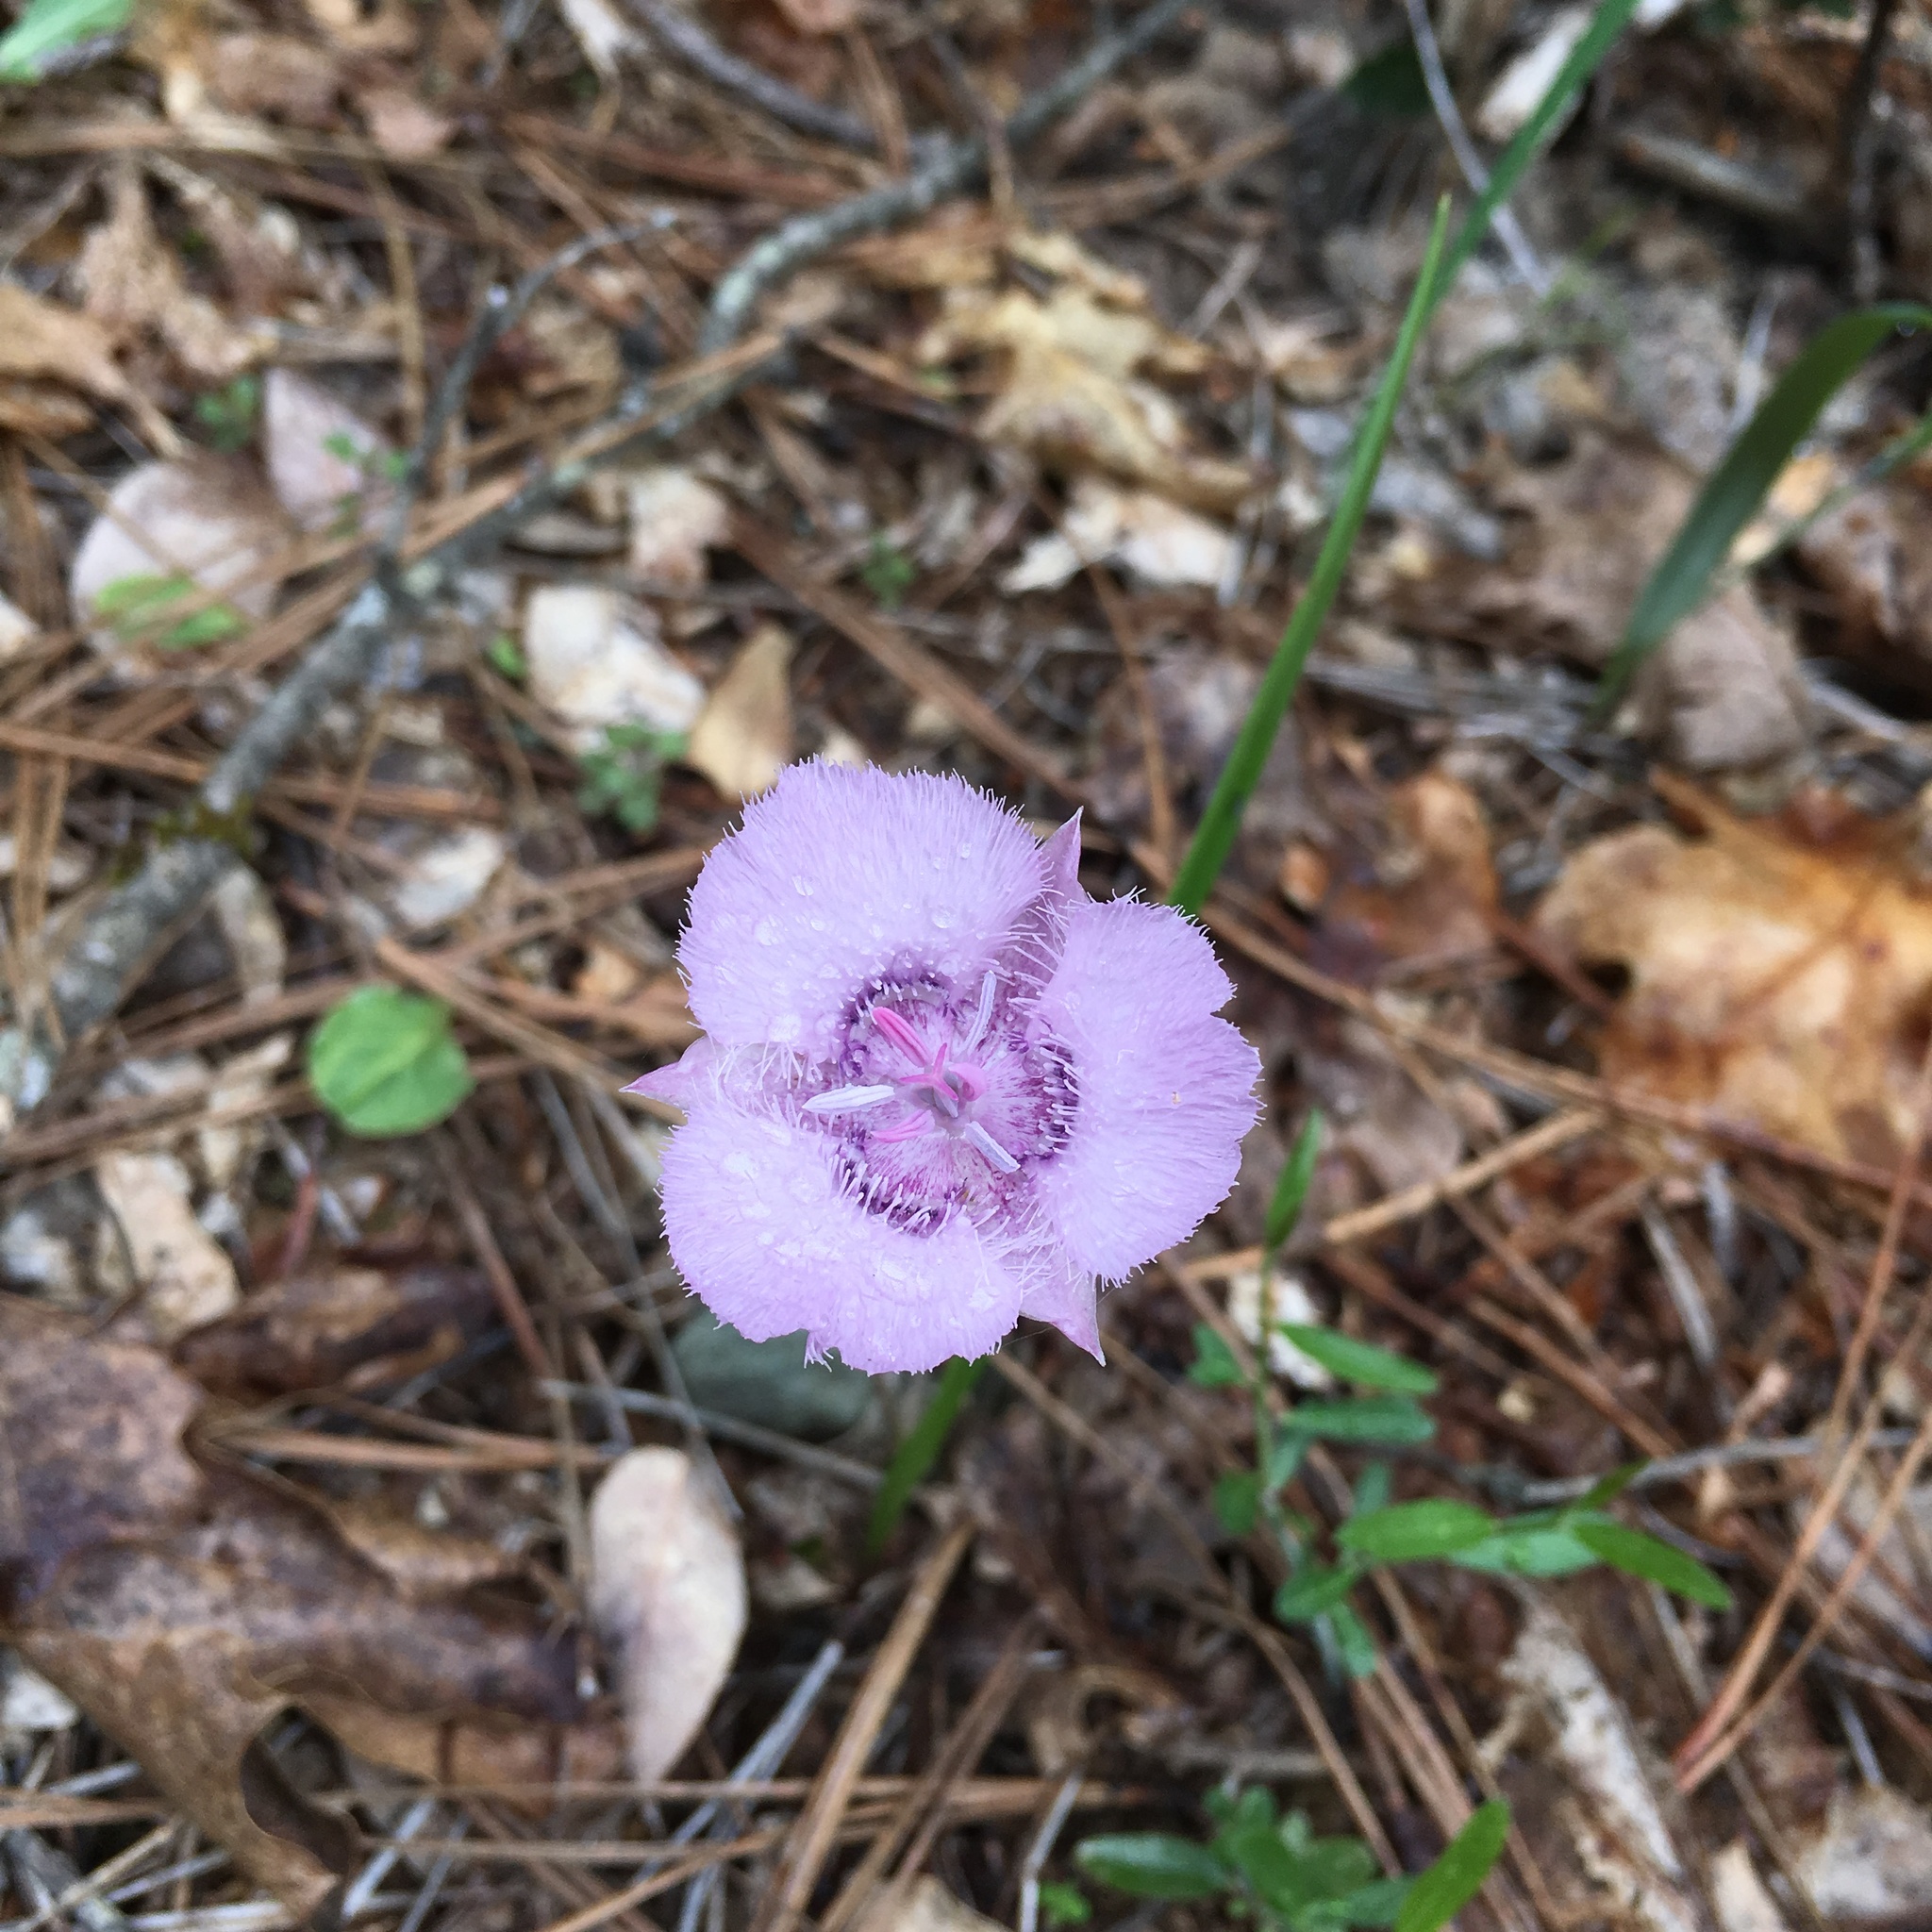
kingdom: Plantae
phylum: Tracheophyta
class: Liliopsida
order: Liliales
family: Liliaceae
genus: Calochortus
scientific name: Calochortus tolmiei
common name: Pussy-ears
